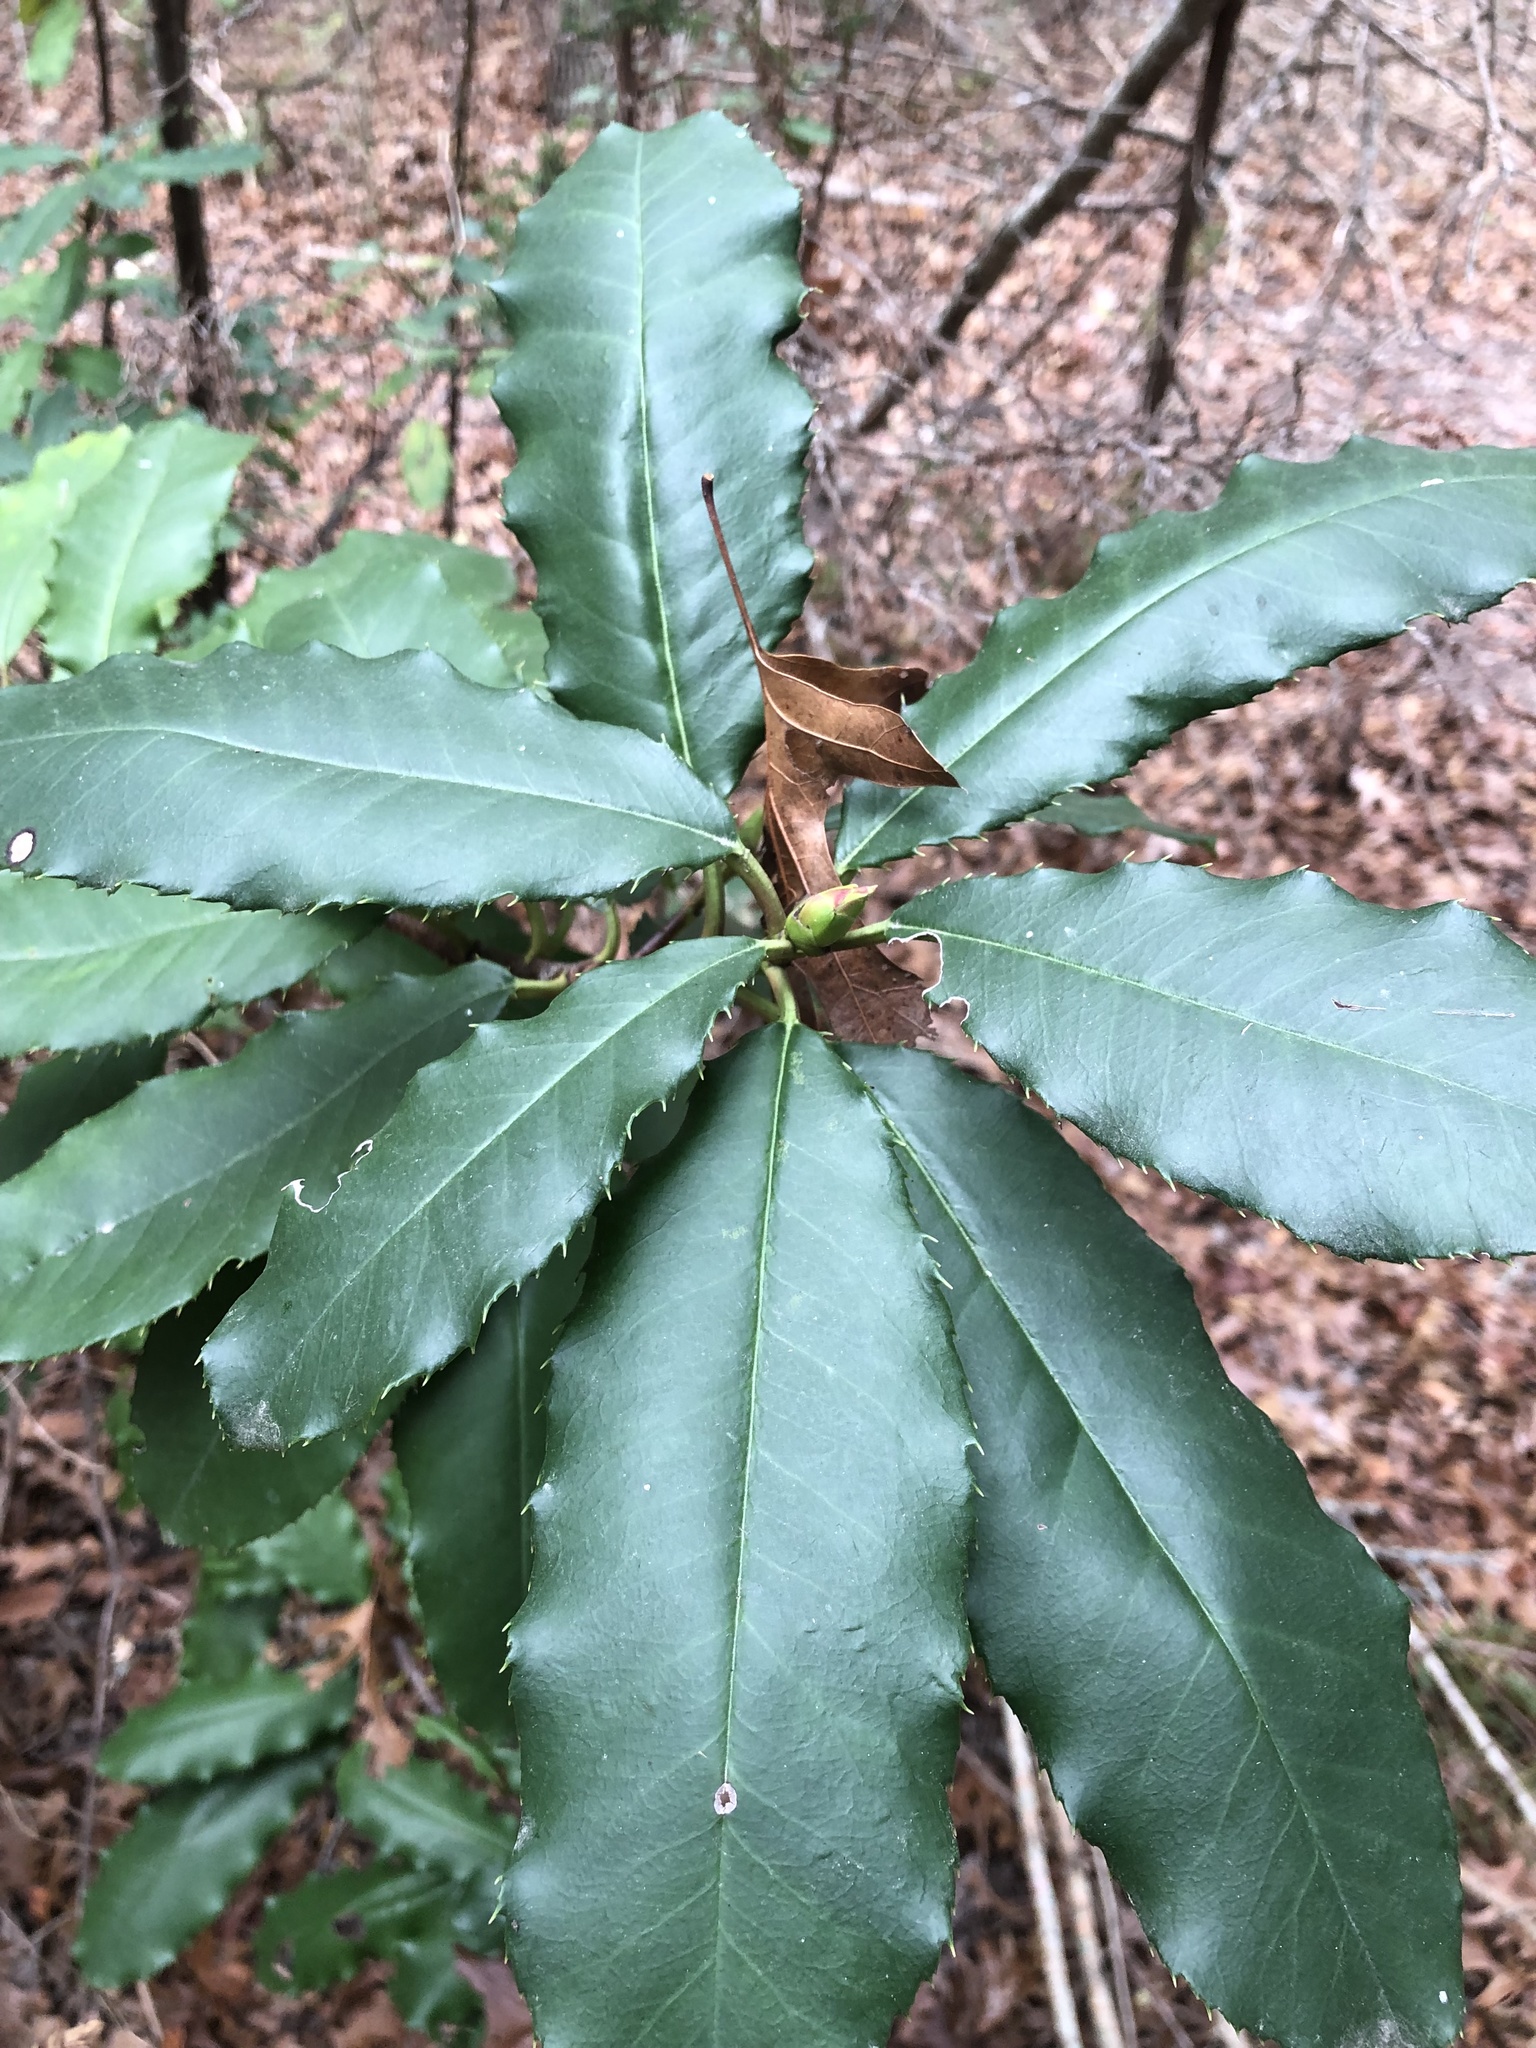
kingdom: Plantae
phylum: Tracheophyta
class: Magnoliopsida
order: Rosales
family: Rosaceae
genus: Photinia
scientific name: Photinia serratifolia
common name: Taiwanese photinia
